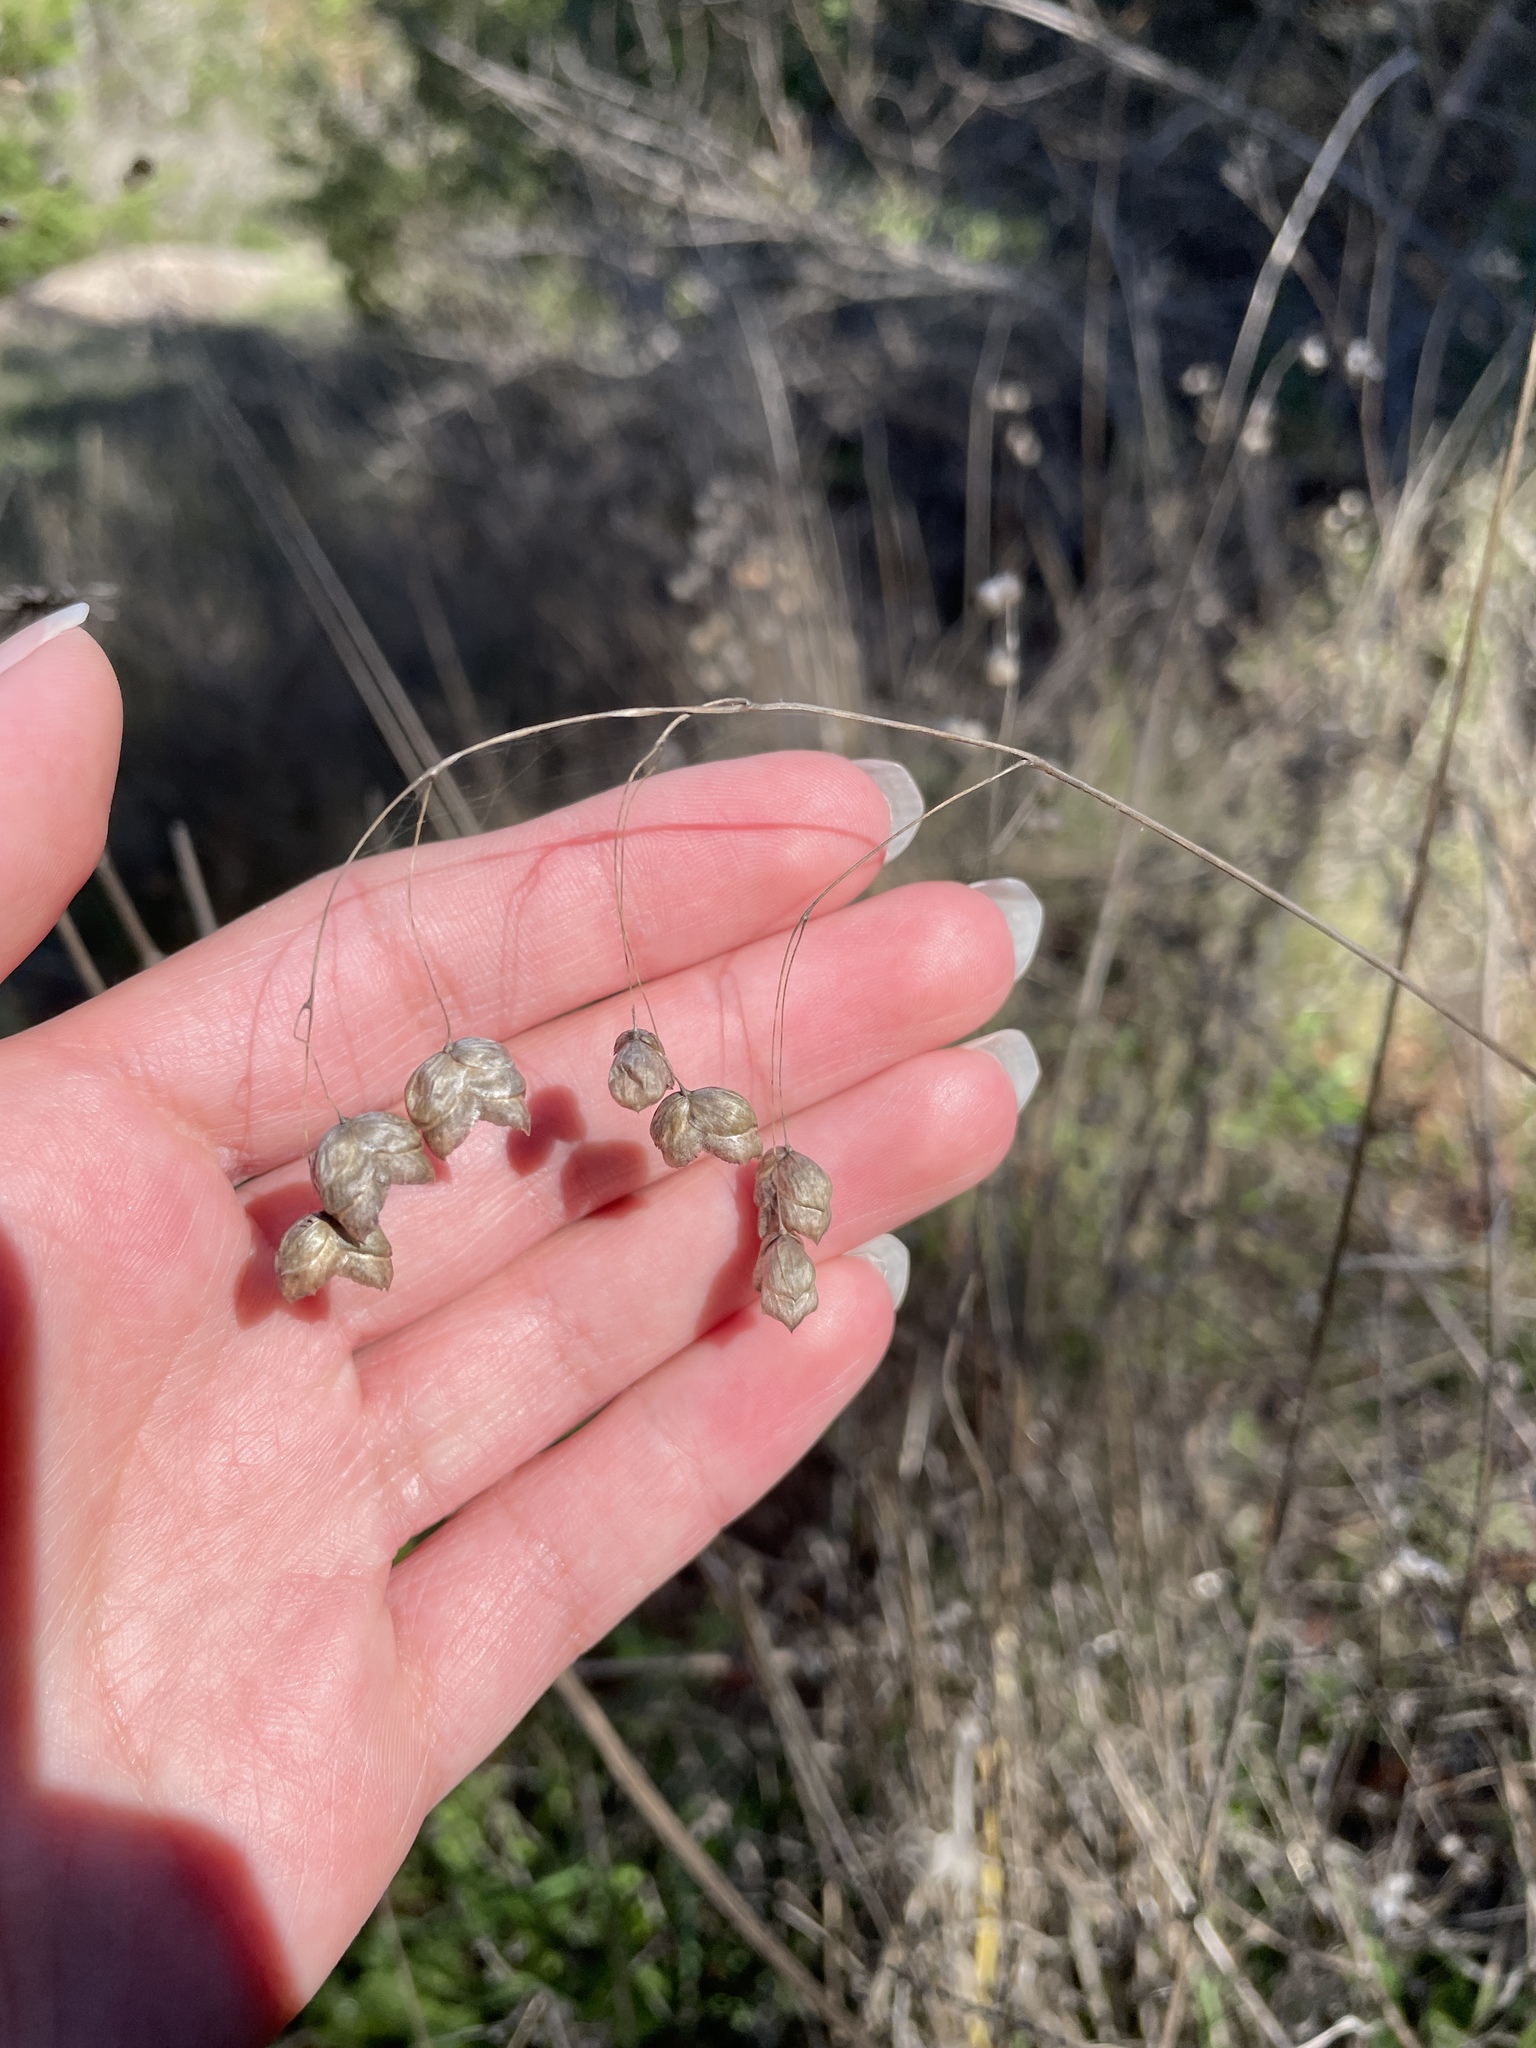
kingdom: Plantae
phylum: Tracheophyta
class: Liliopsida
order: Poales
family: Poaceae
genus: Briza
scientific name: Briza maxima
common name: Big quakinggrass
